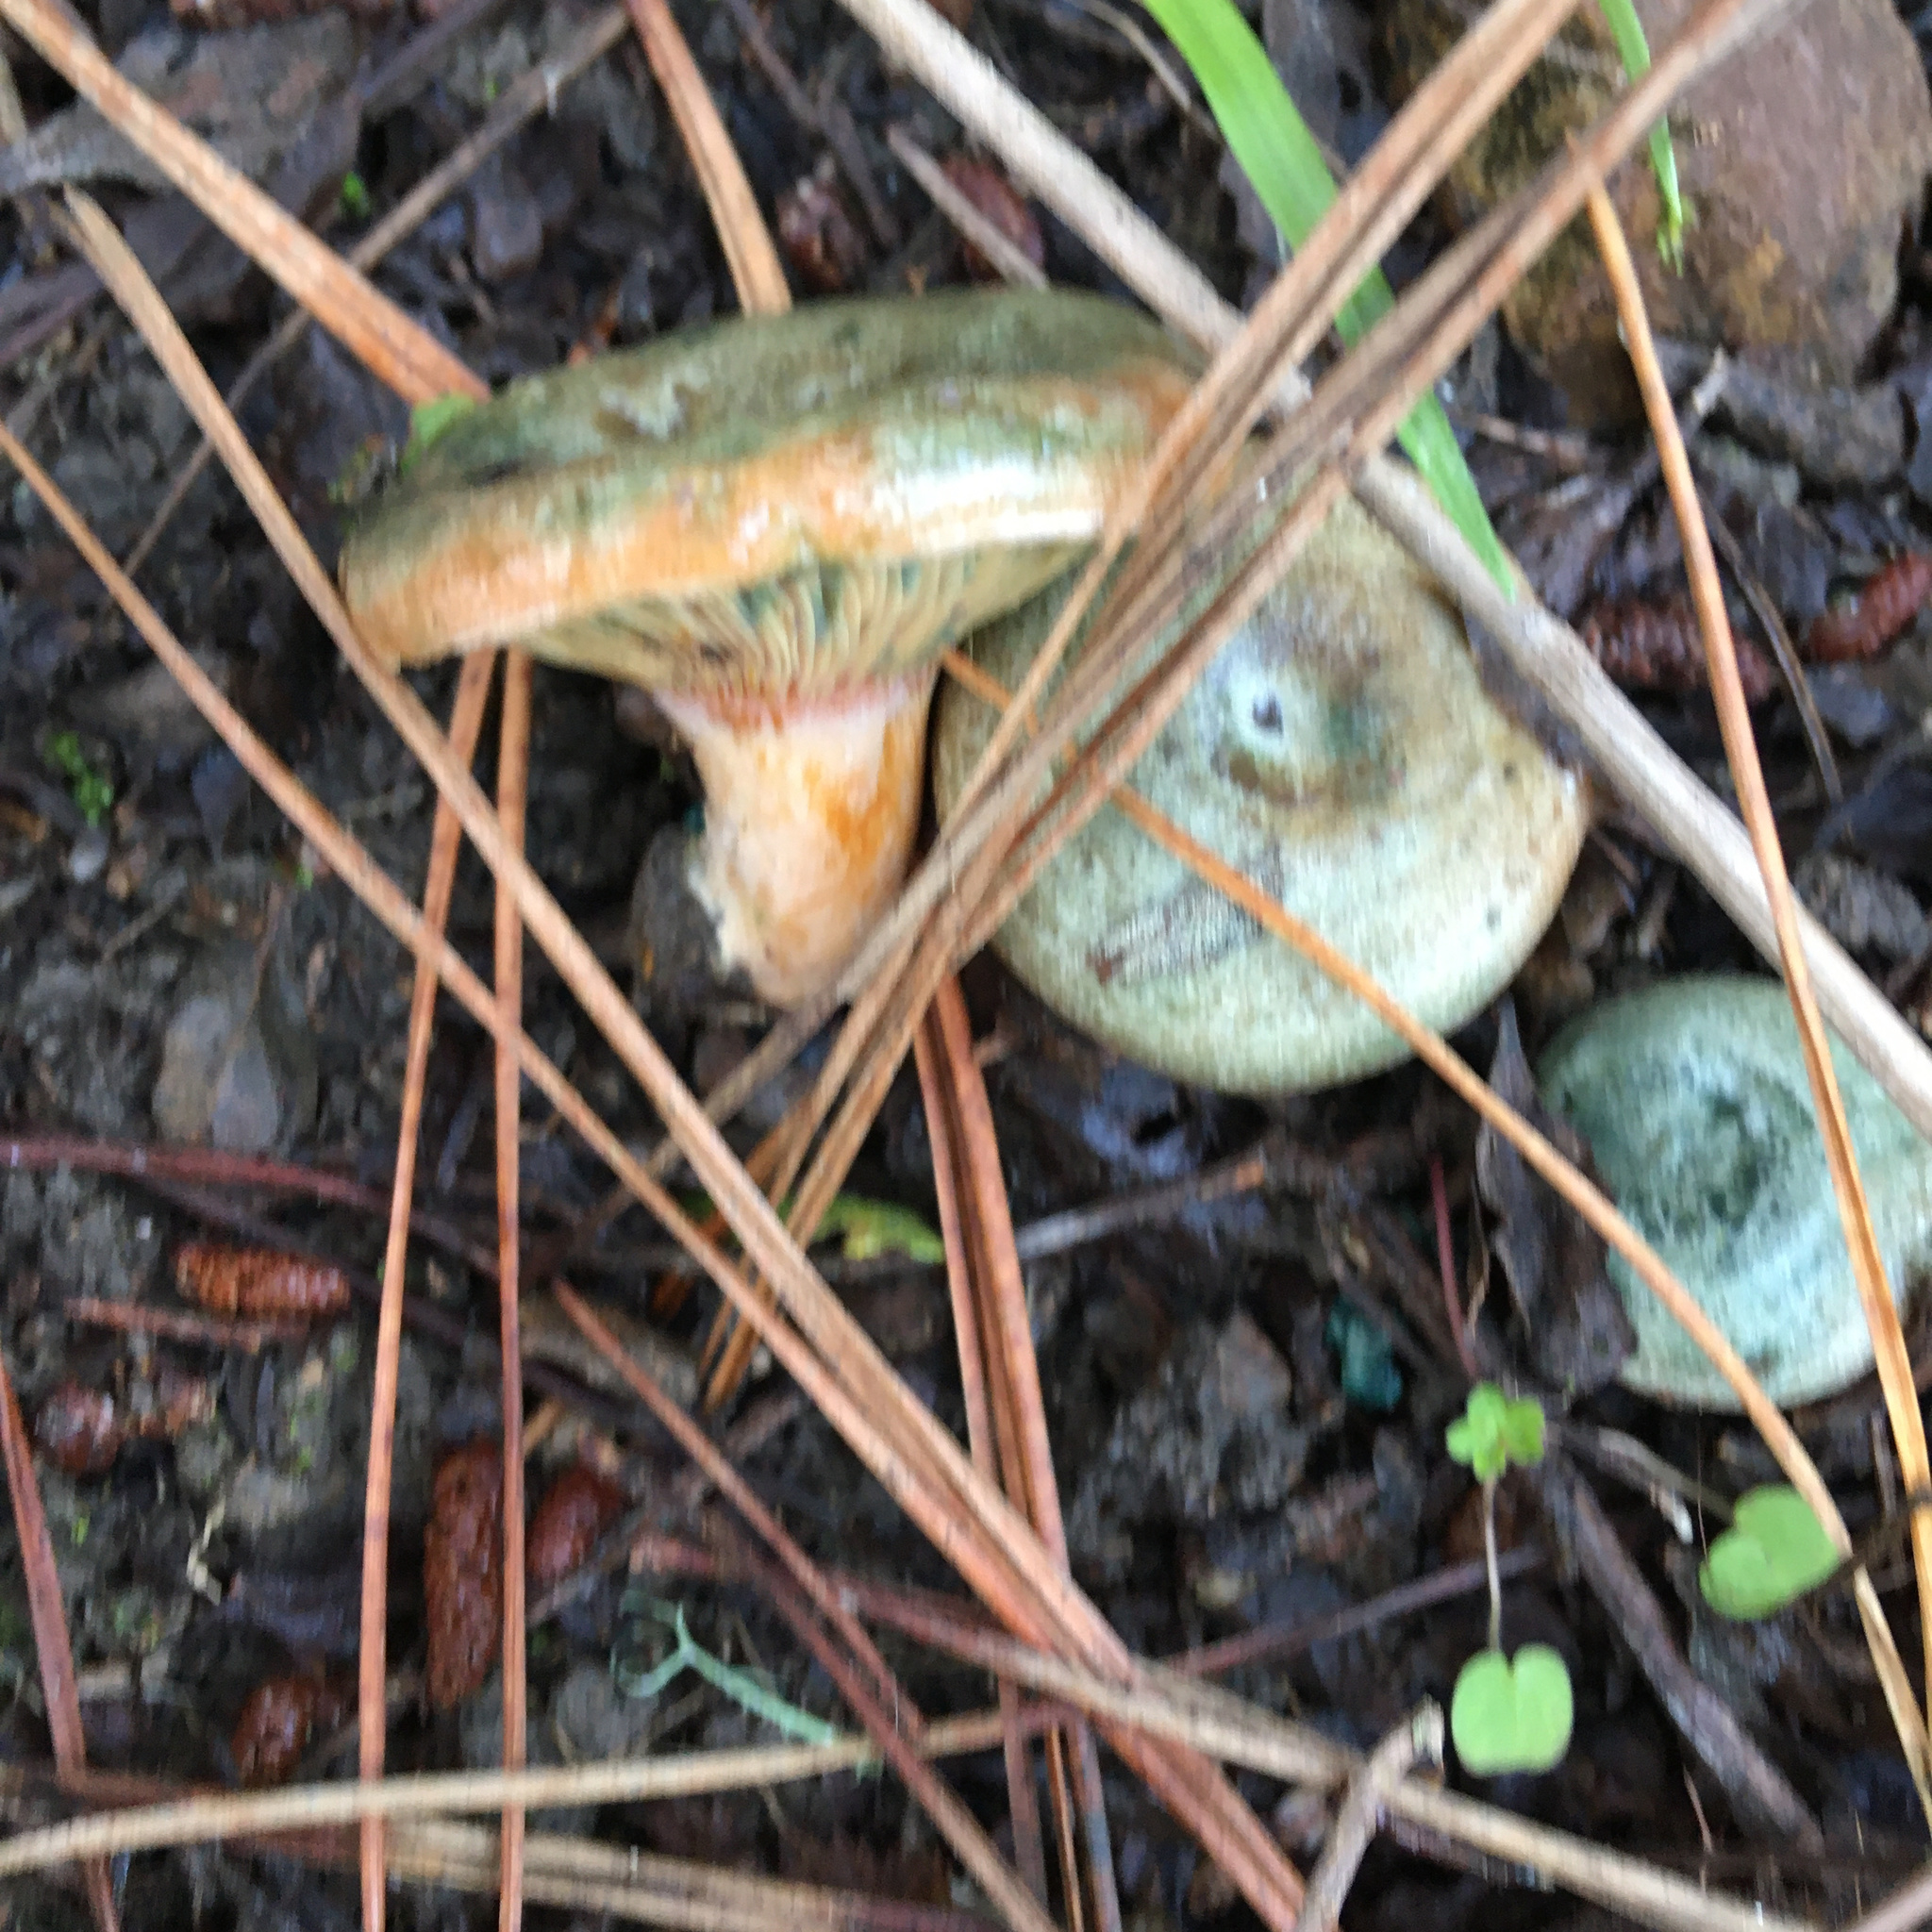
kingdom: Fungi
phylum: Basidiomycota
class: Agaricomycetes
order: Russulales
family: Russulaceae
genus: Lactarius
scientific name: Lactarius deliciosus
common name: Saffron milk-cap
